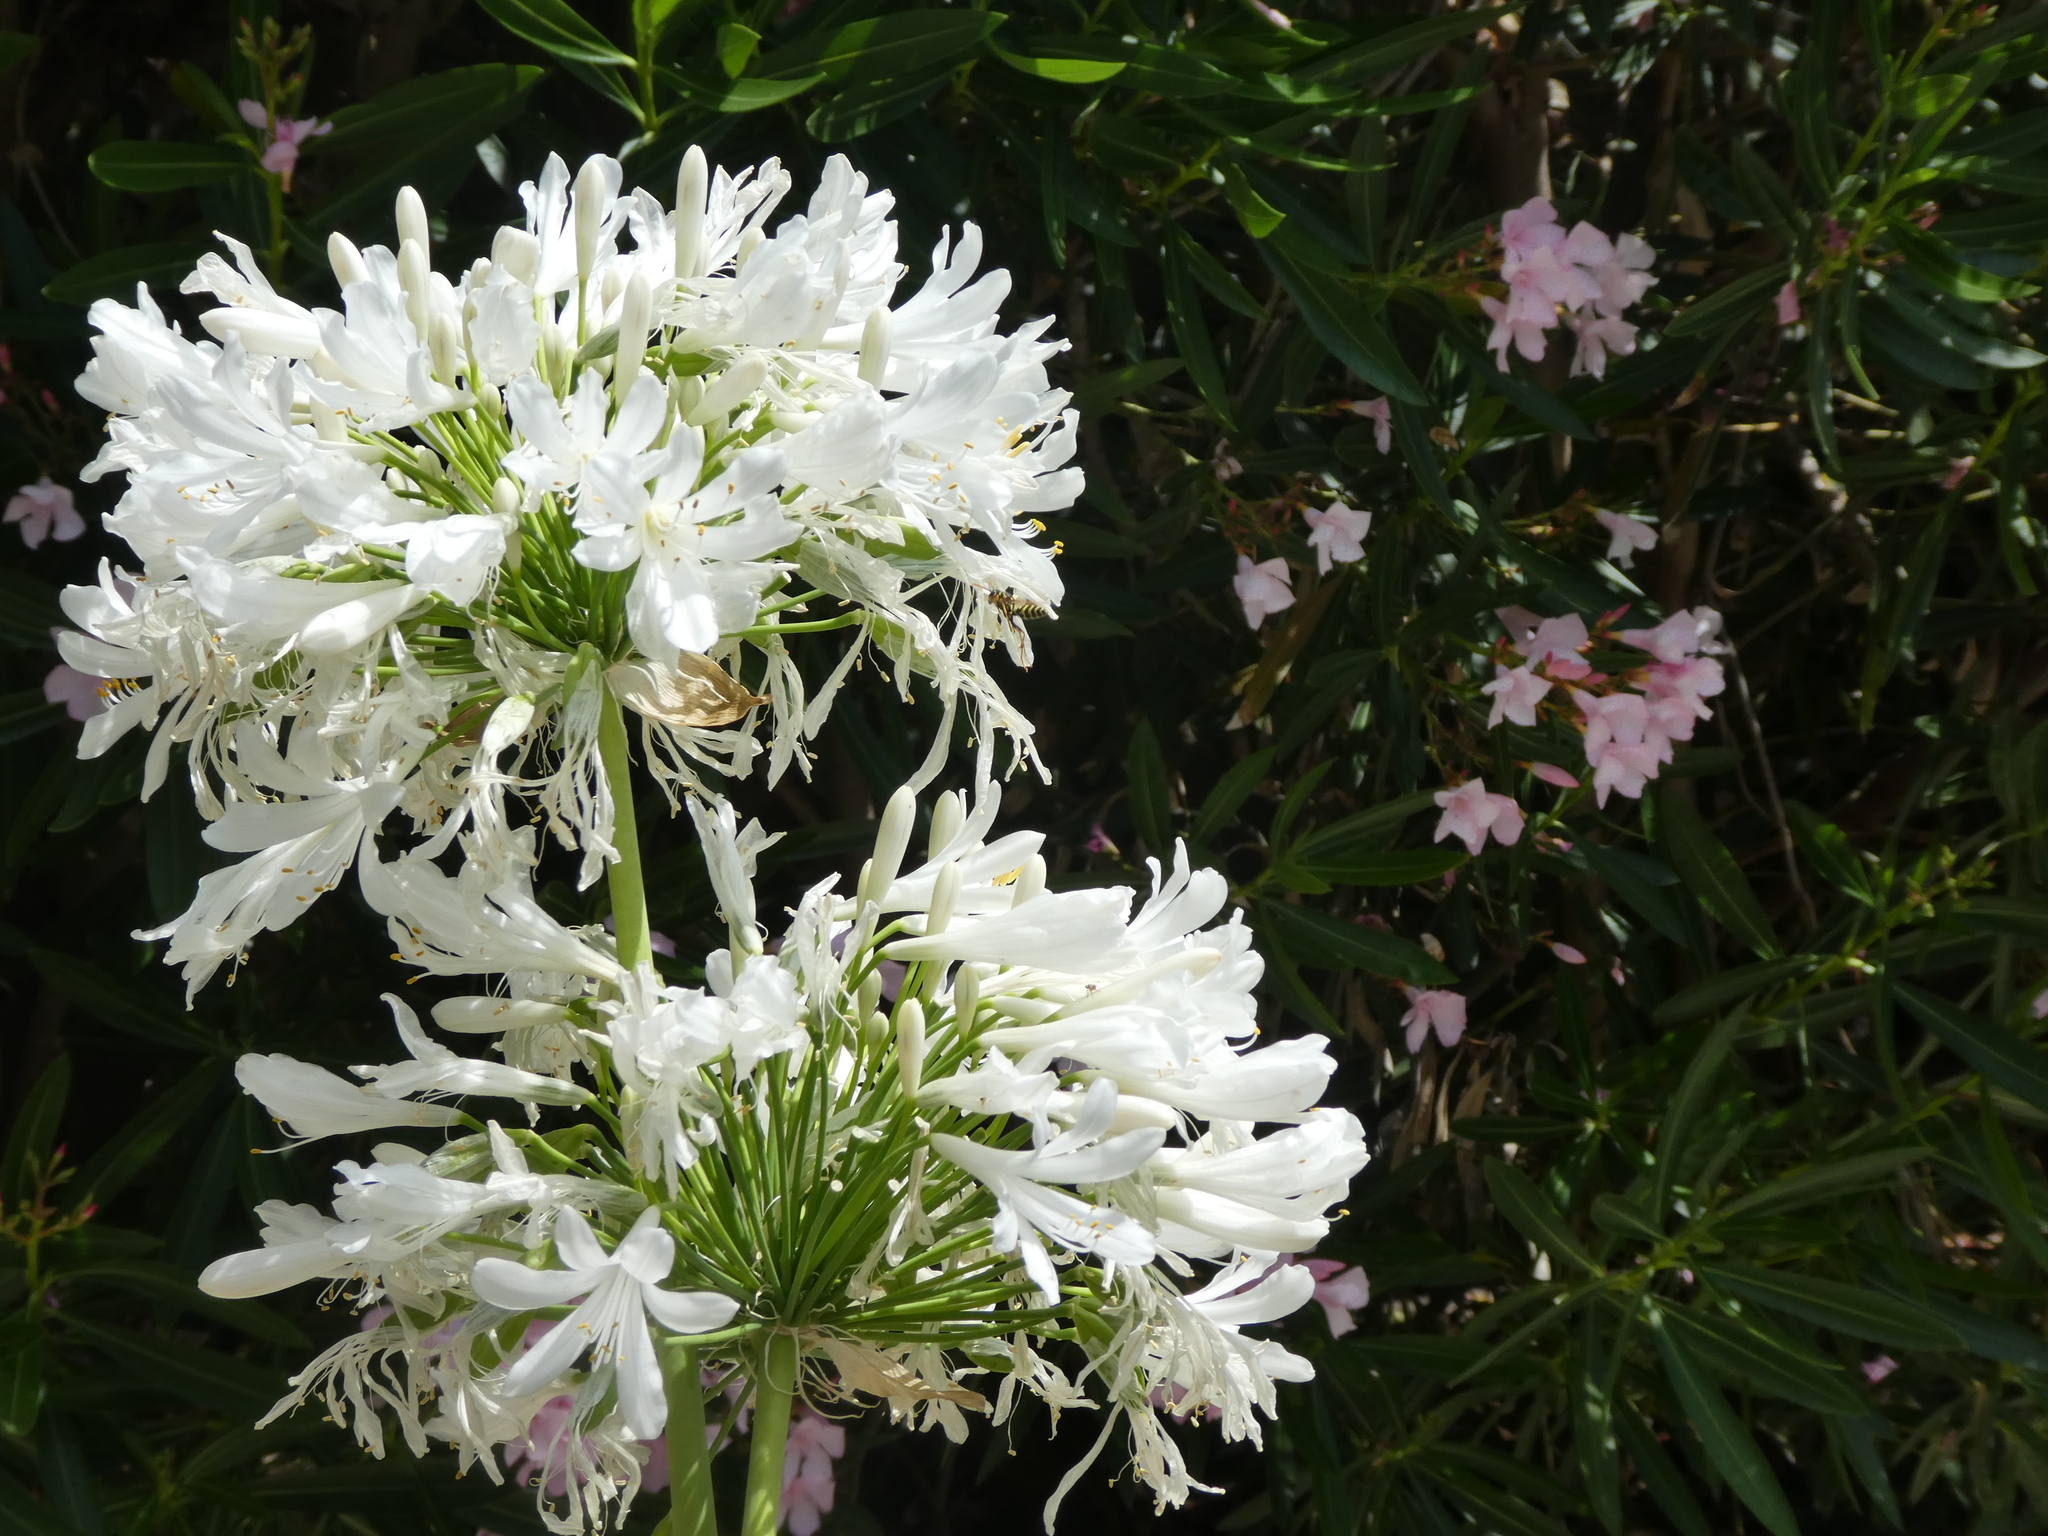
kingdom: Animalia
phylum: Arthropoda
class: Insecta
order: Hymenoptera
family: Eumenidae
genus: Polistes
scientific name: Polistes dominula
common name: Paper wasp
